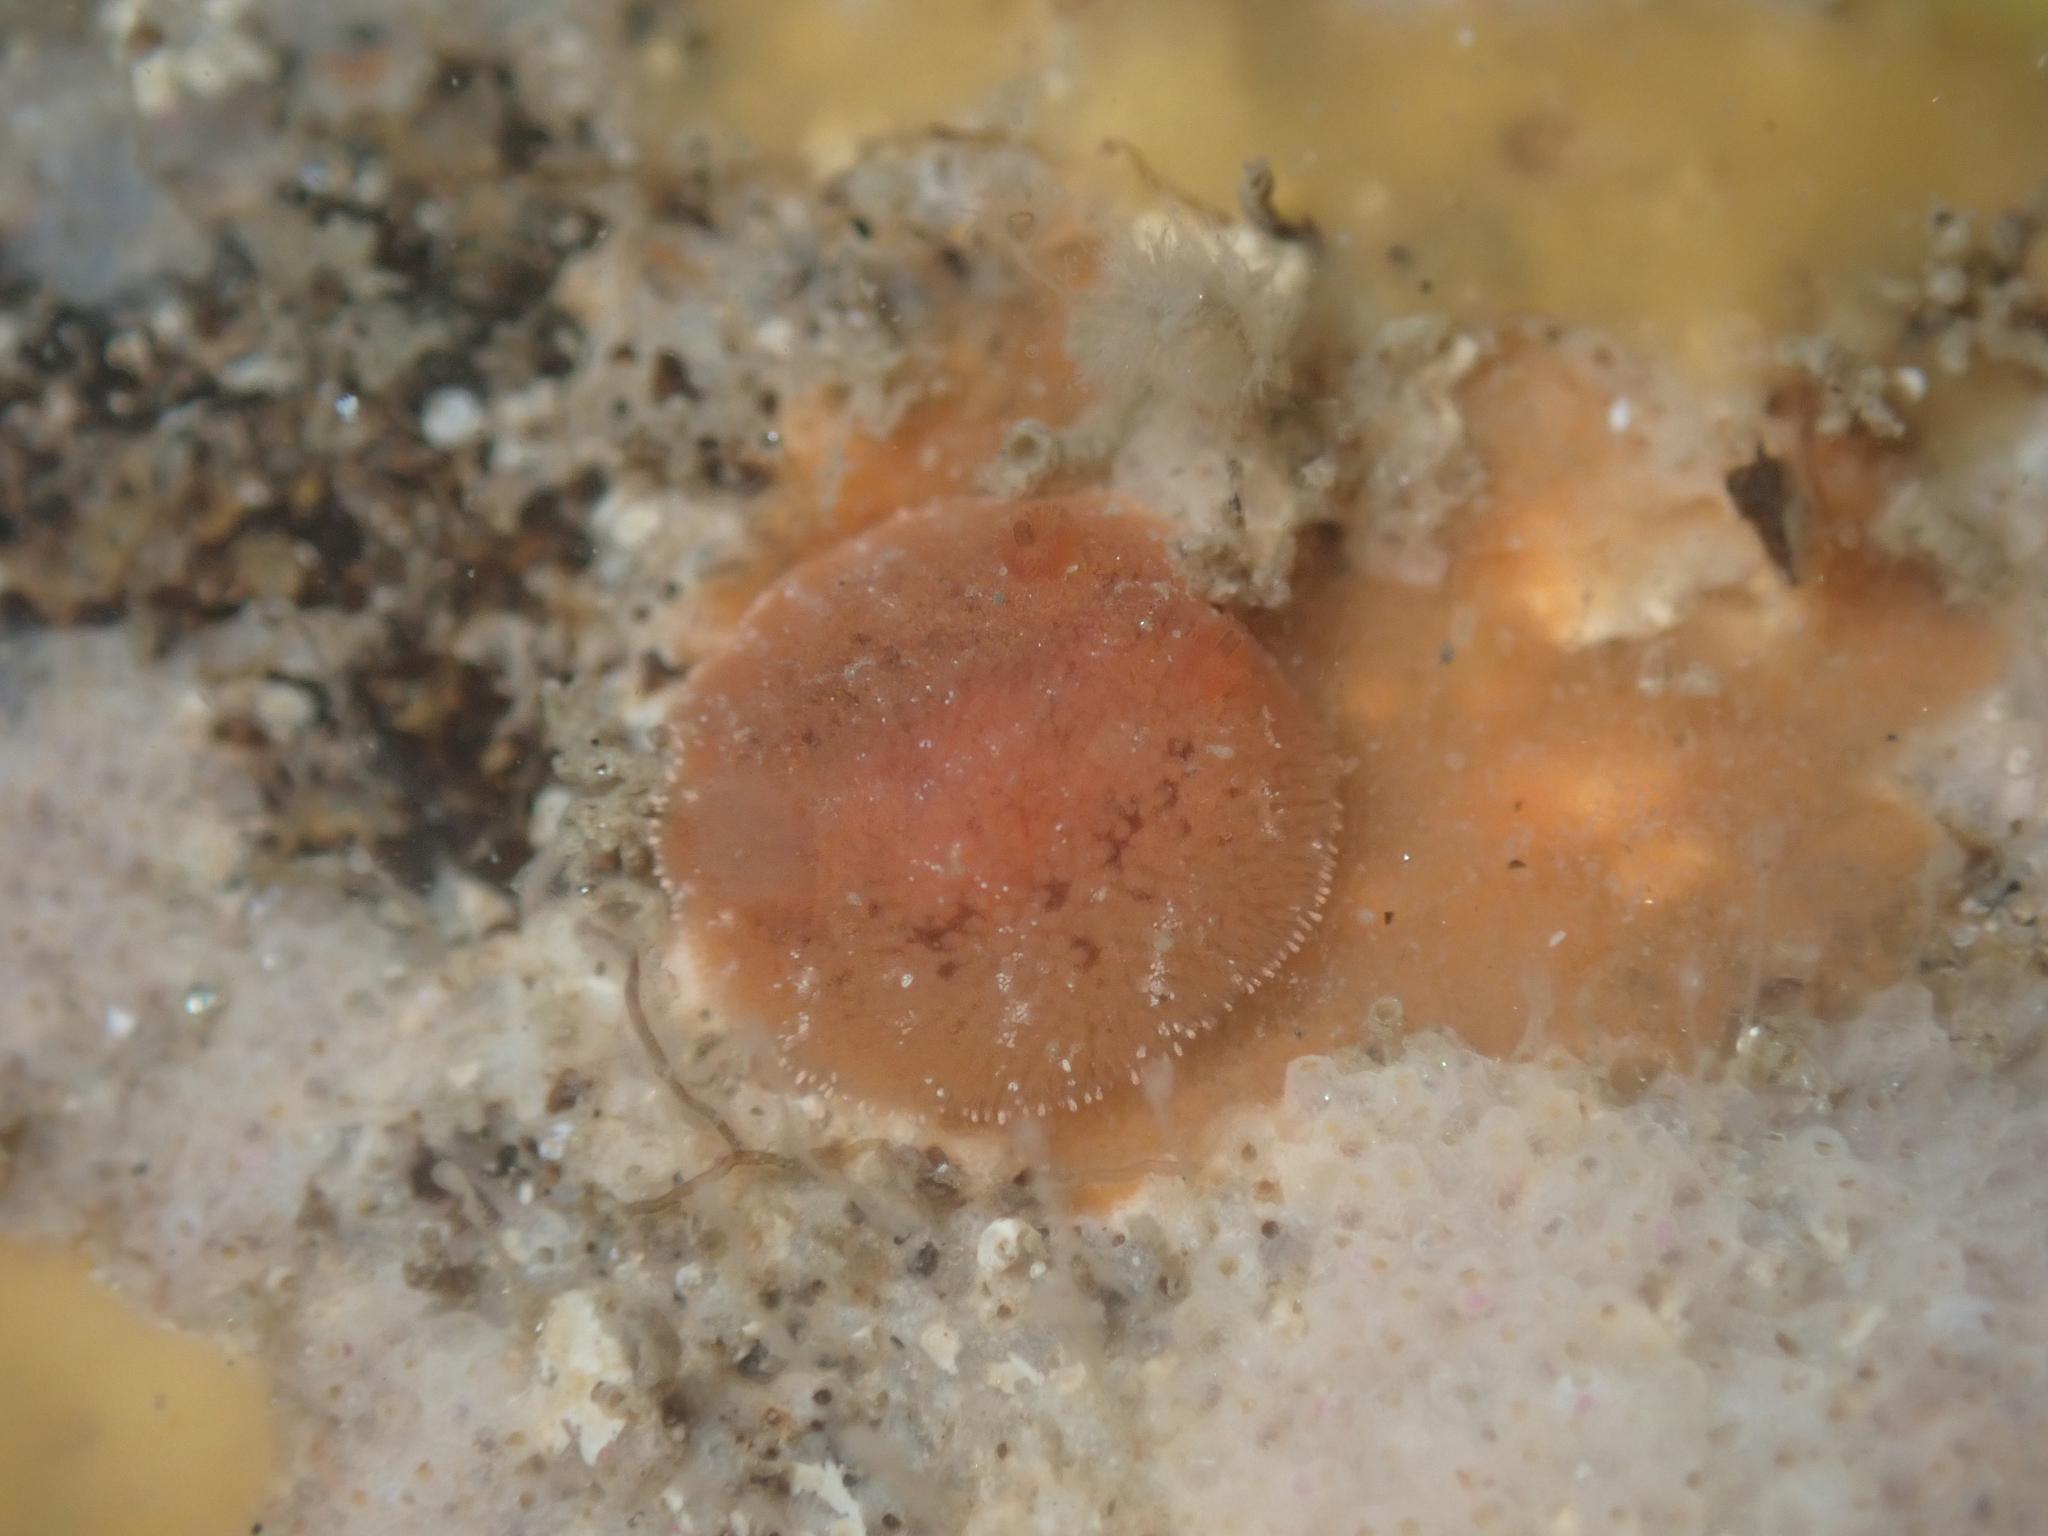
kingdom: Animalia
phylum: Mollusca
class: Gastropoda
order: Nudibranchia
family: Discodorididae
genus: Rostanga
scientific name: Rostanga pulchra
